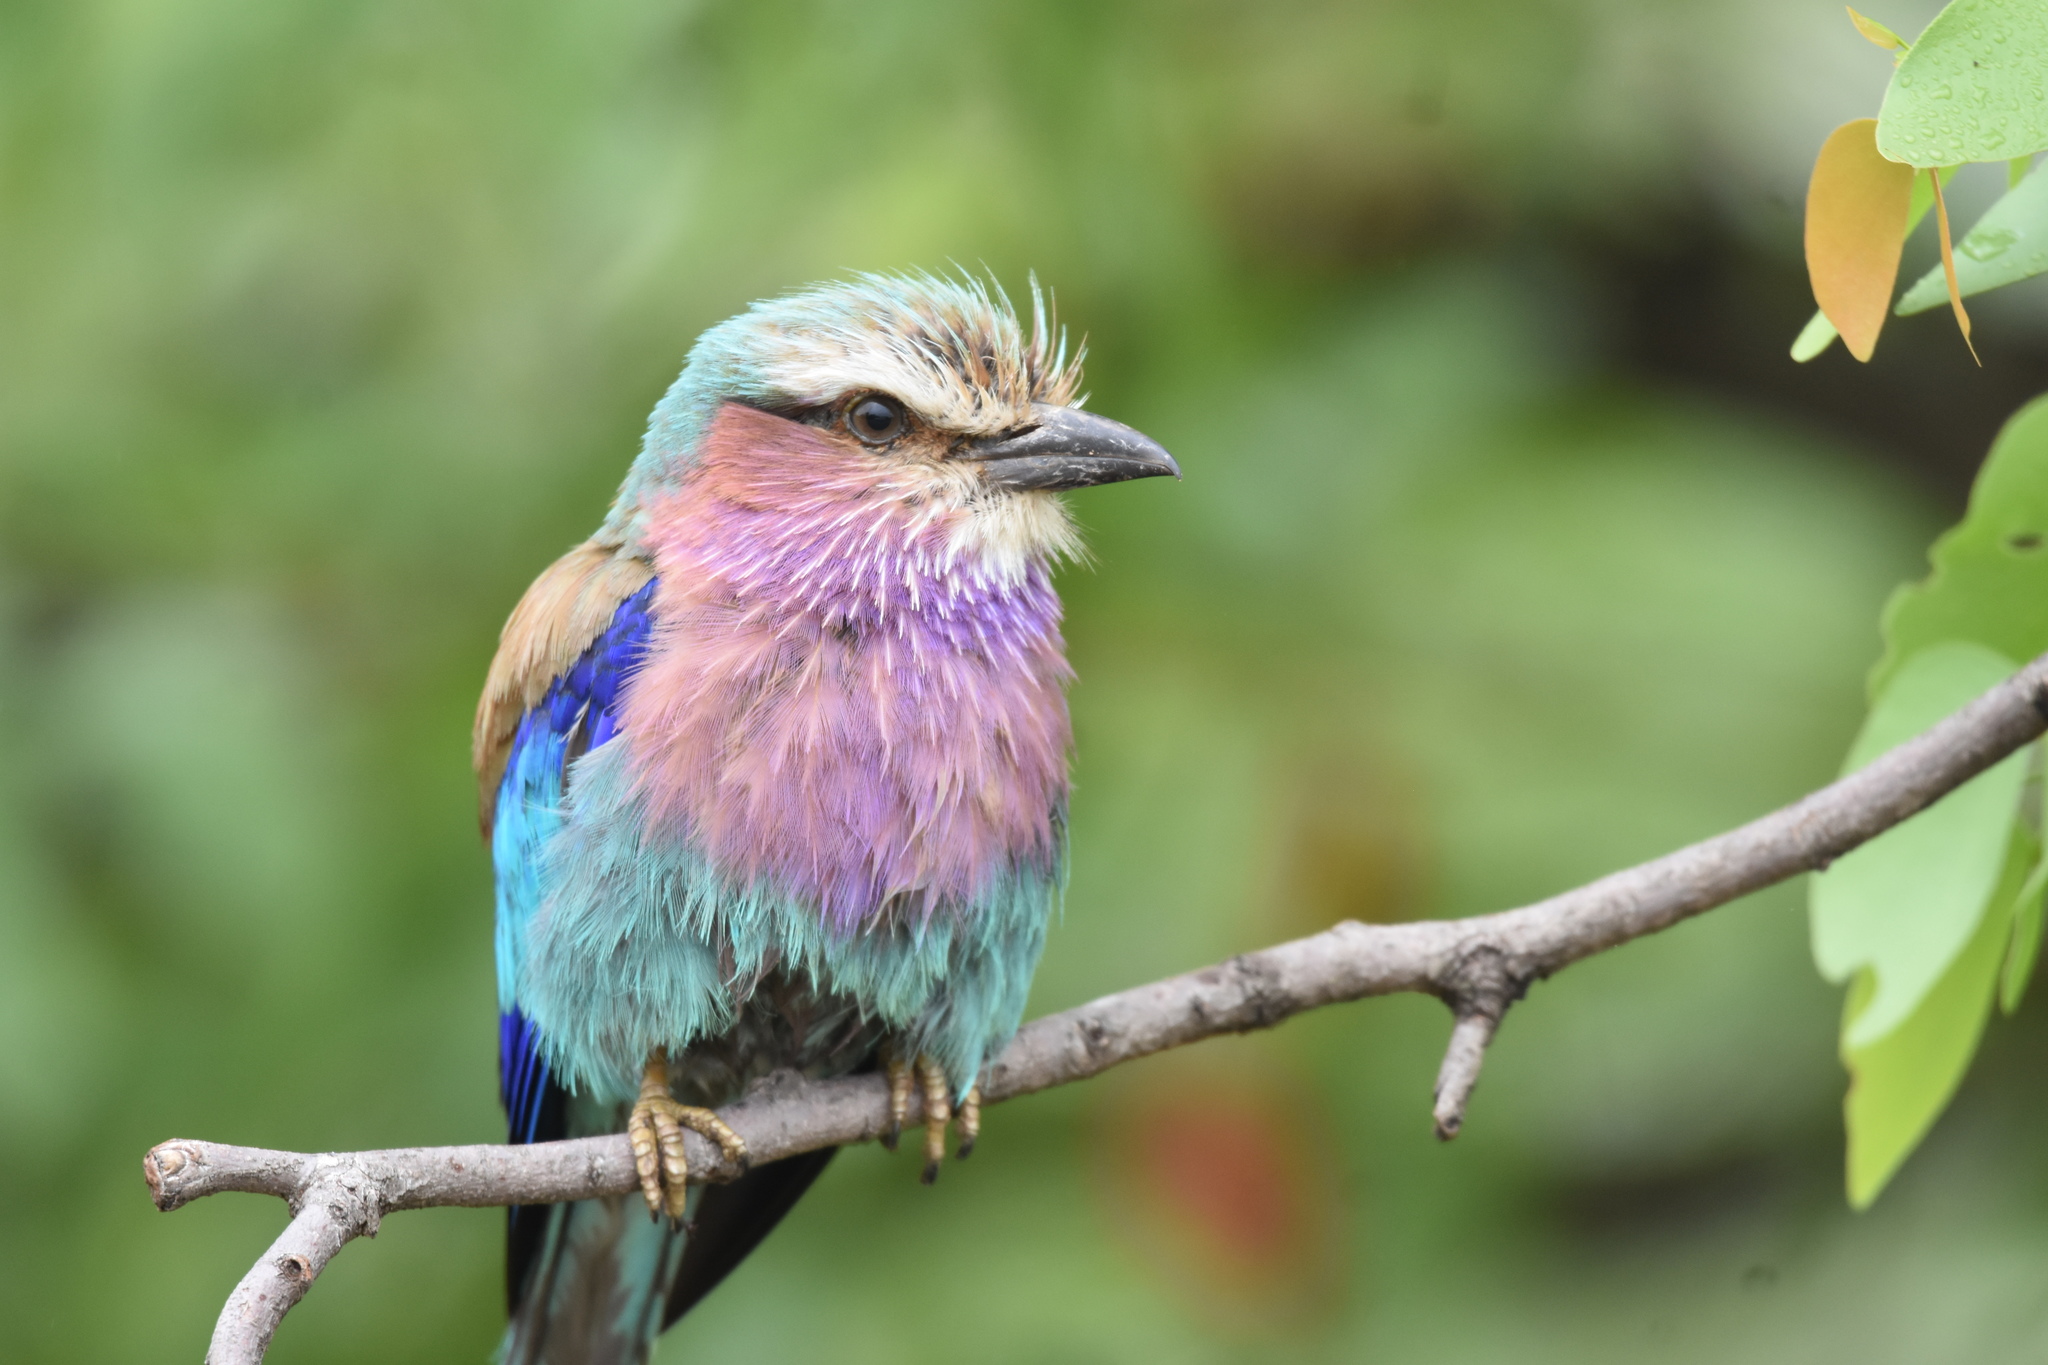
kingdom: Animalia
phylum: Chordata
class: Aves
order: Coraciiformes
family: Coraciidae
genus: Coracias
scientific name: Coracias caudatus
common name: Lilac-breasted roller
